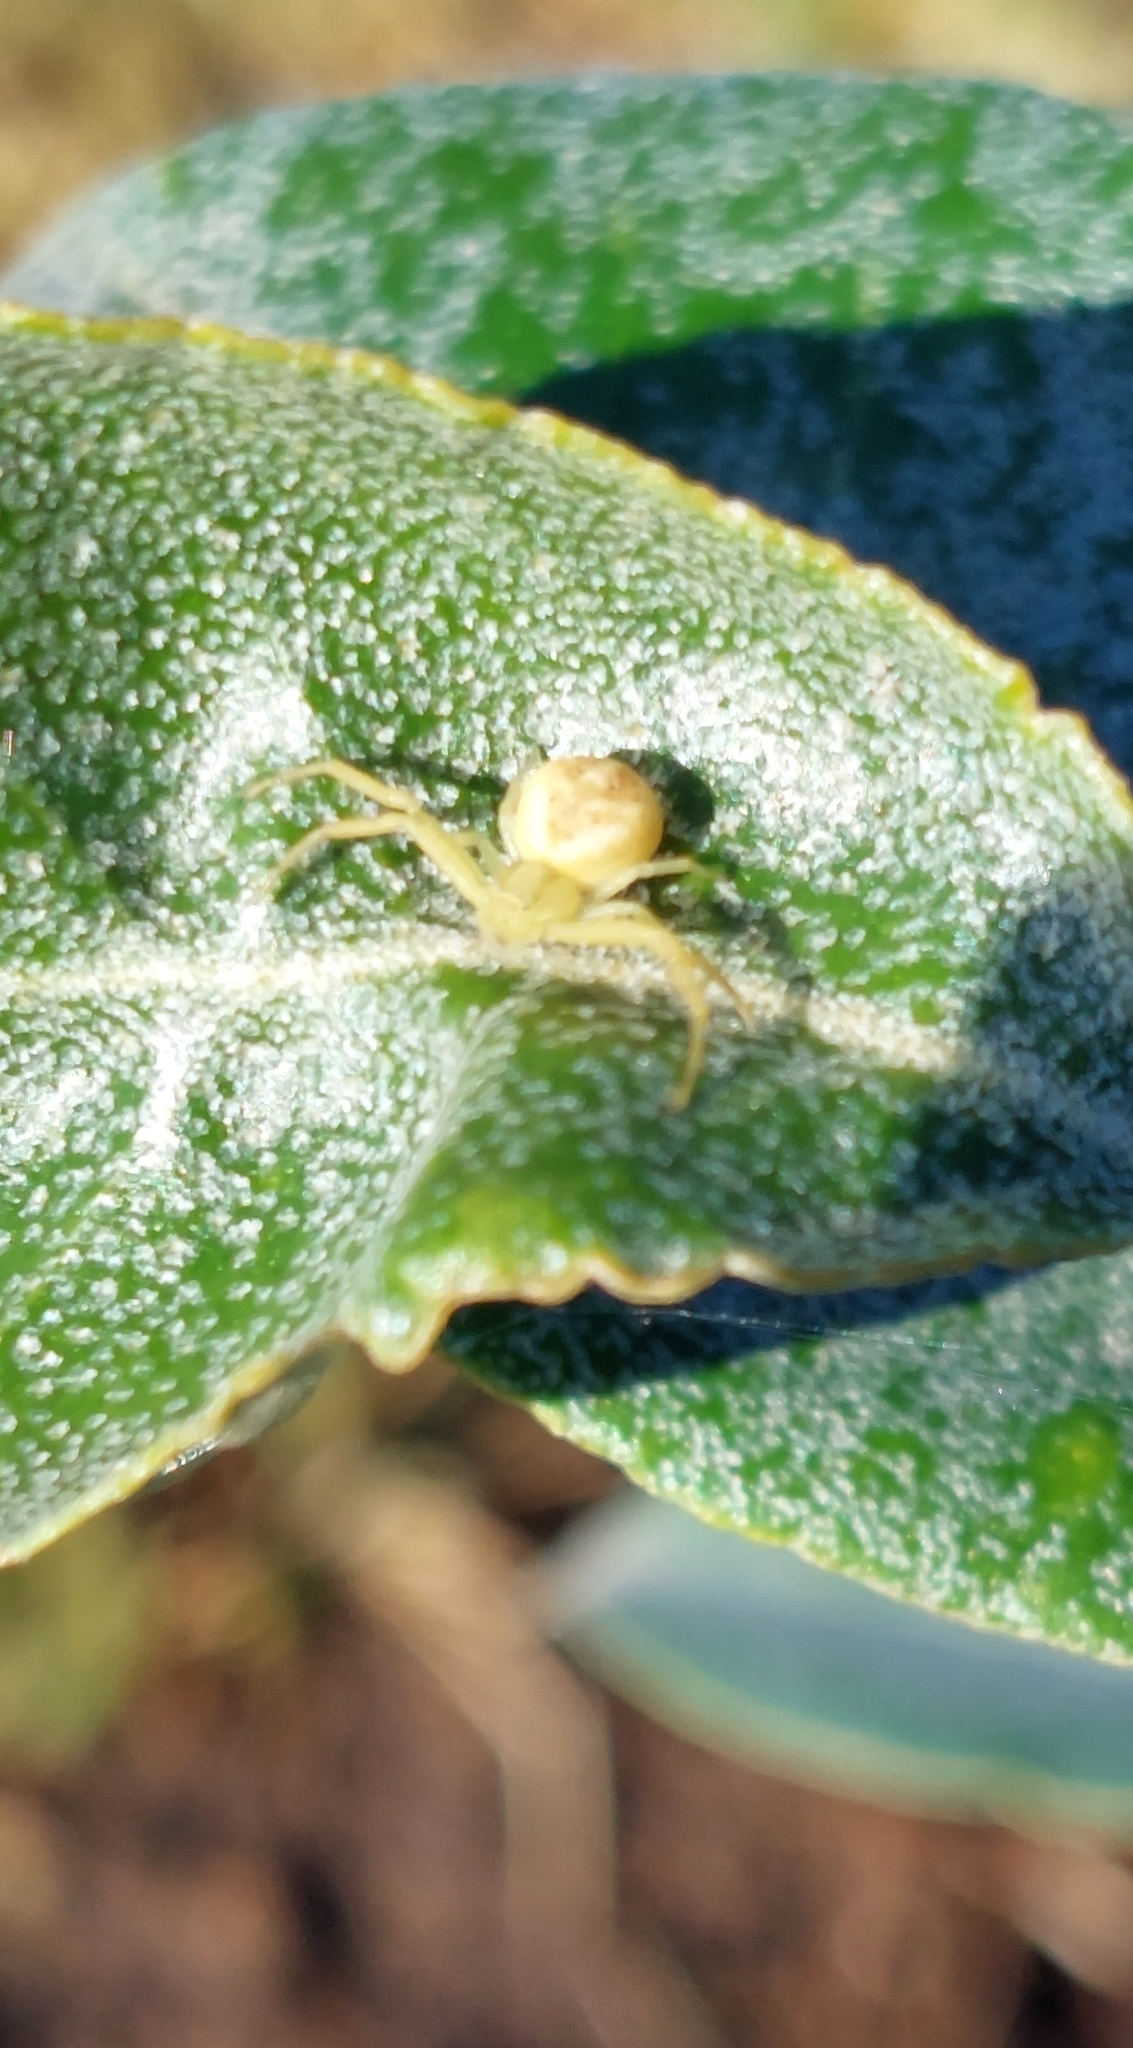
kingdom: Animalia
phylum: Arthropoda
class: Arachnida
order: Araneae
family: Thomisidae
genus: Misumenops
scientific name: Misumenops
